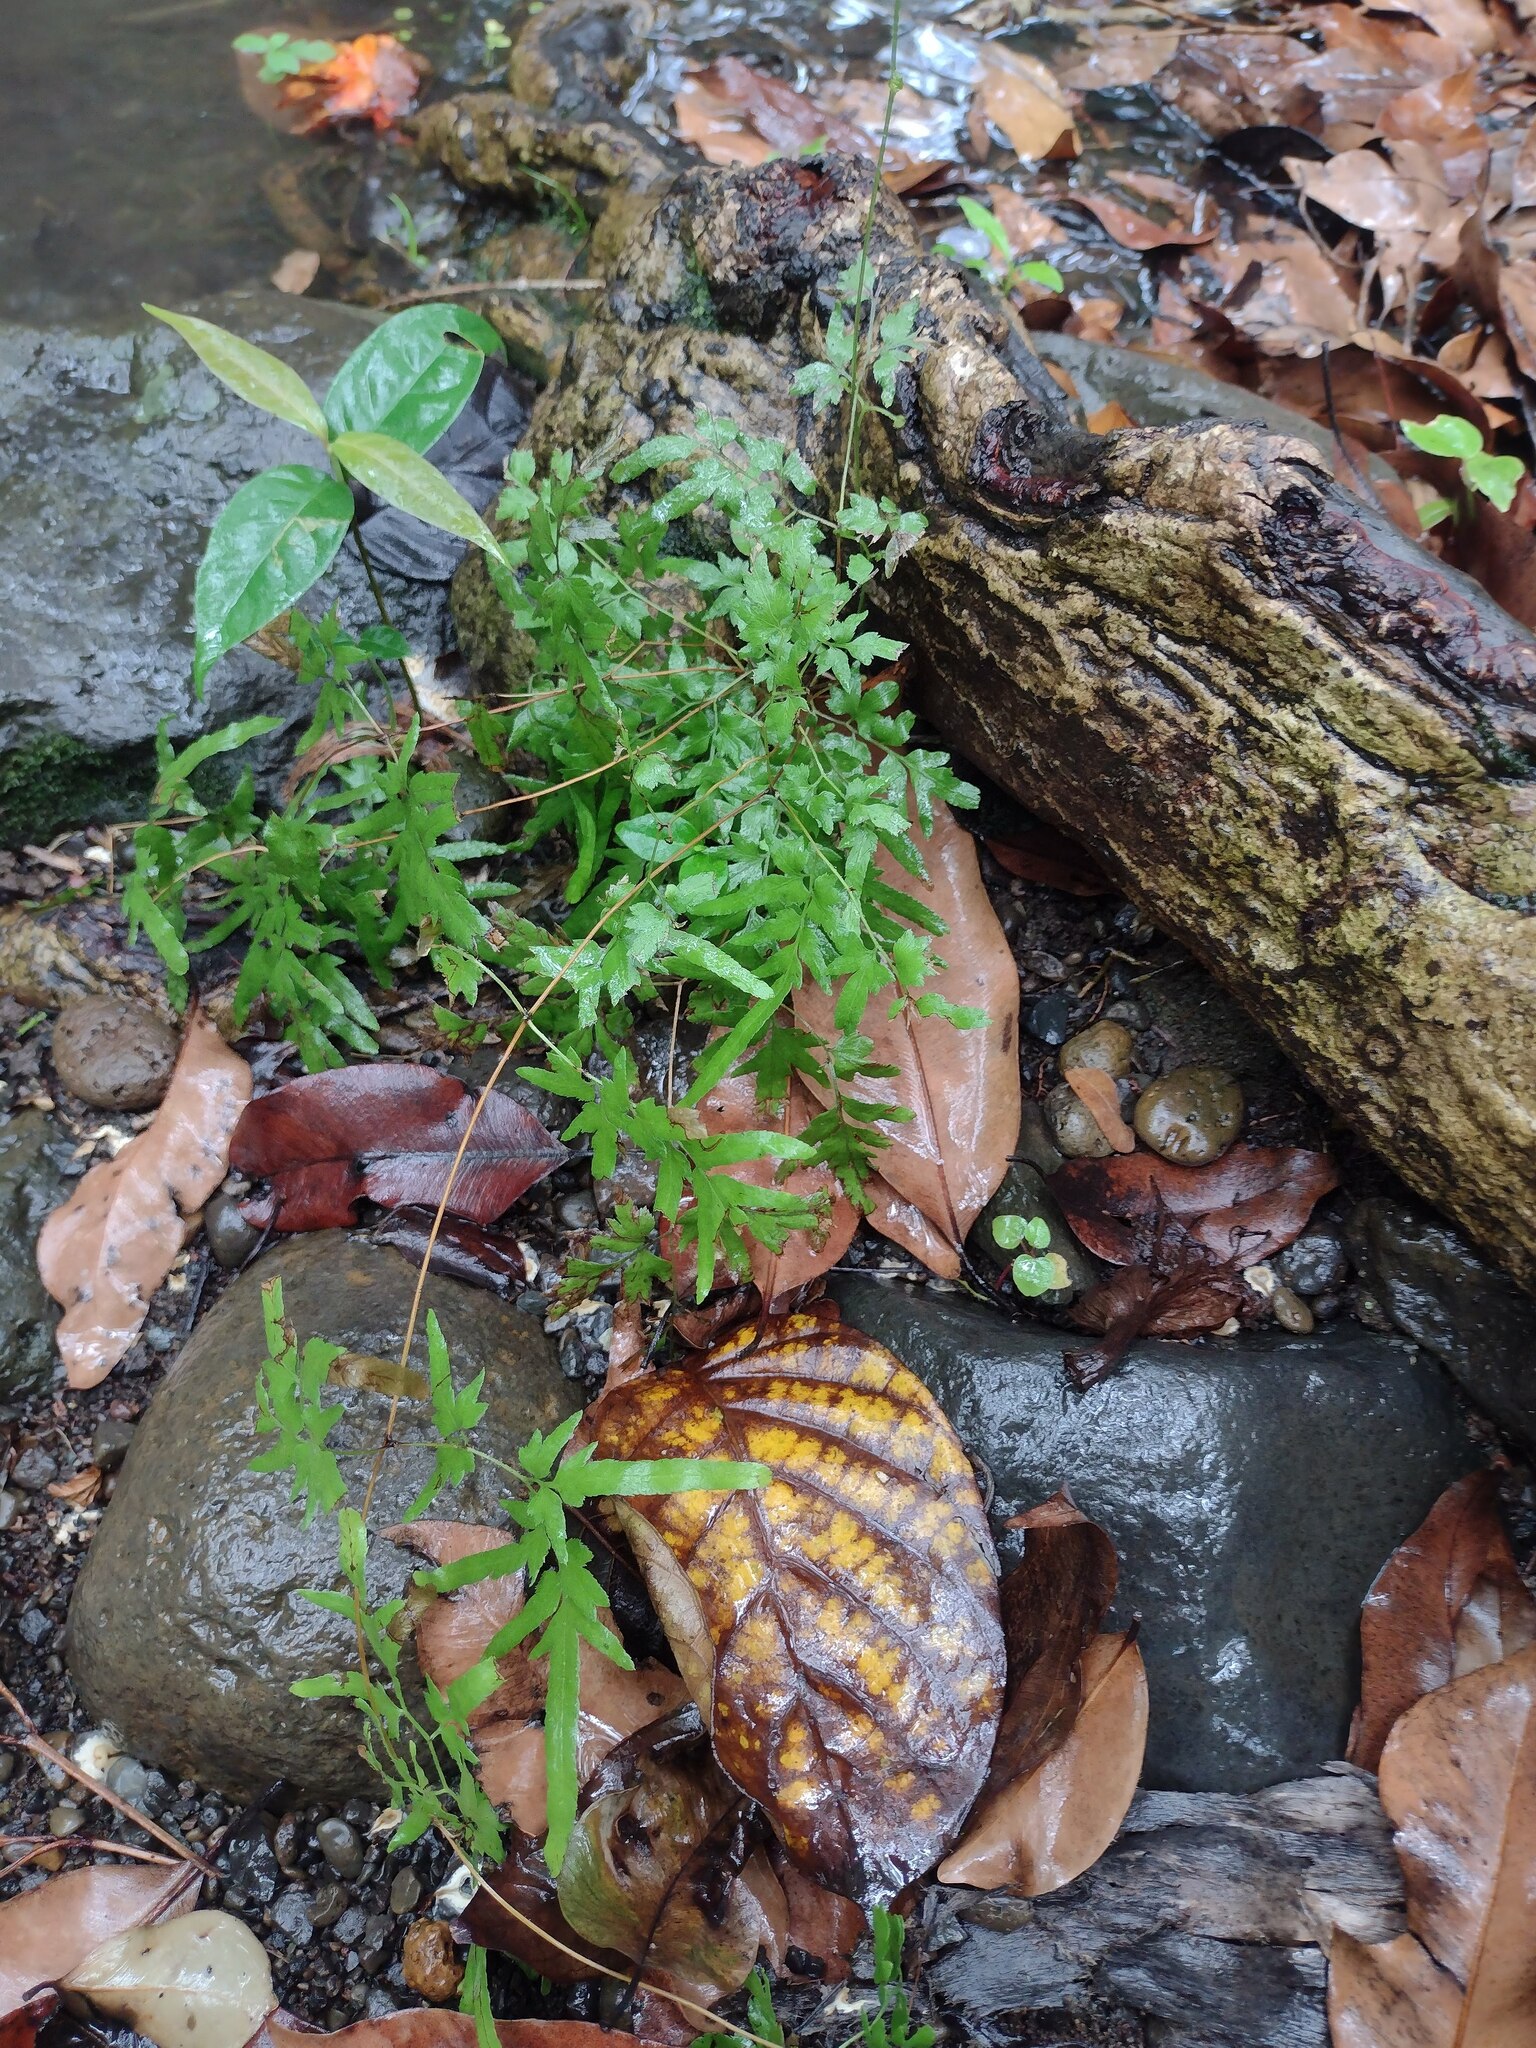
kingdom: Plantae
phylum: Tracheophyta
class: Polypodiopsida
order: Schizaeales
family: Lygodiaceae
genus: Lygodium
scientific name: Lygodium japonicum
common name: Japanese climbing fern
